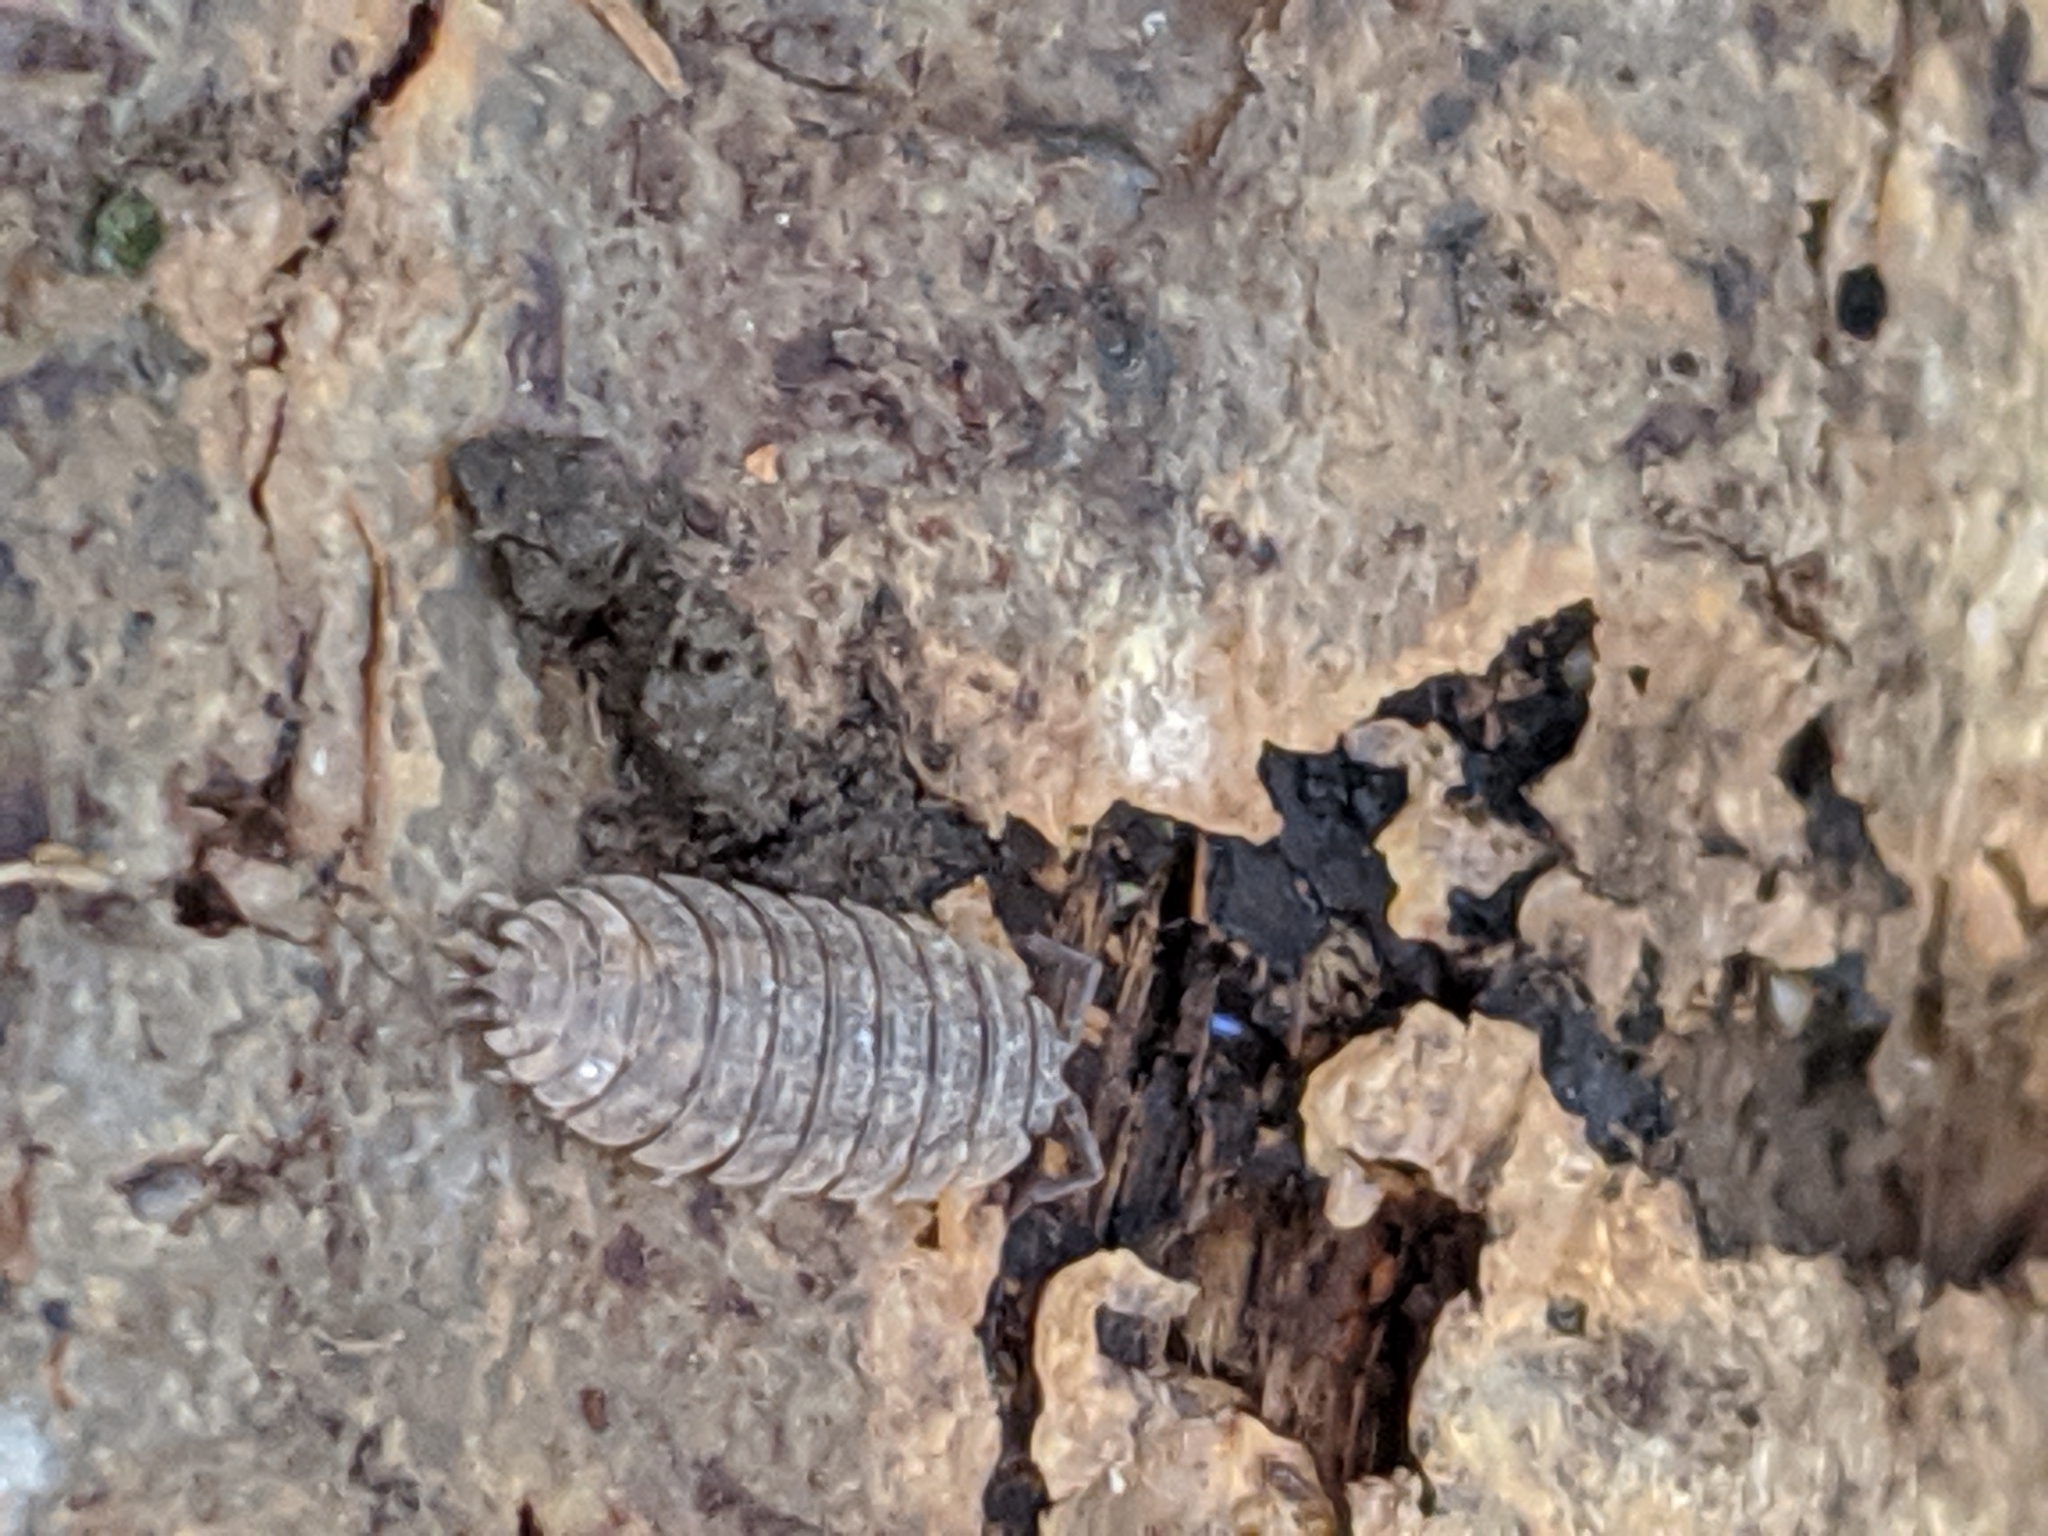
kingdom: Animalia
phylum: Arthropoda
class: Malacostraca
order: Isopoda
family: Porcellionidae
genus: Porcellio
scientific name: Porcellio scaber
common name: Common rough woodlouse
